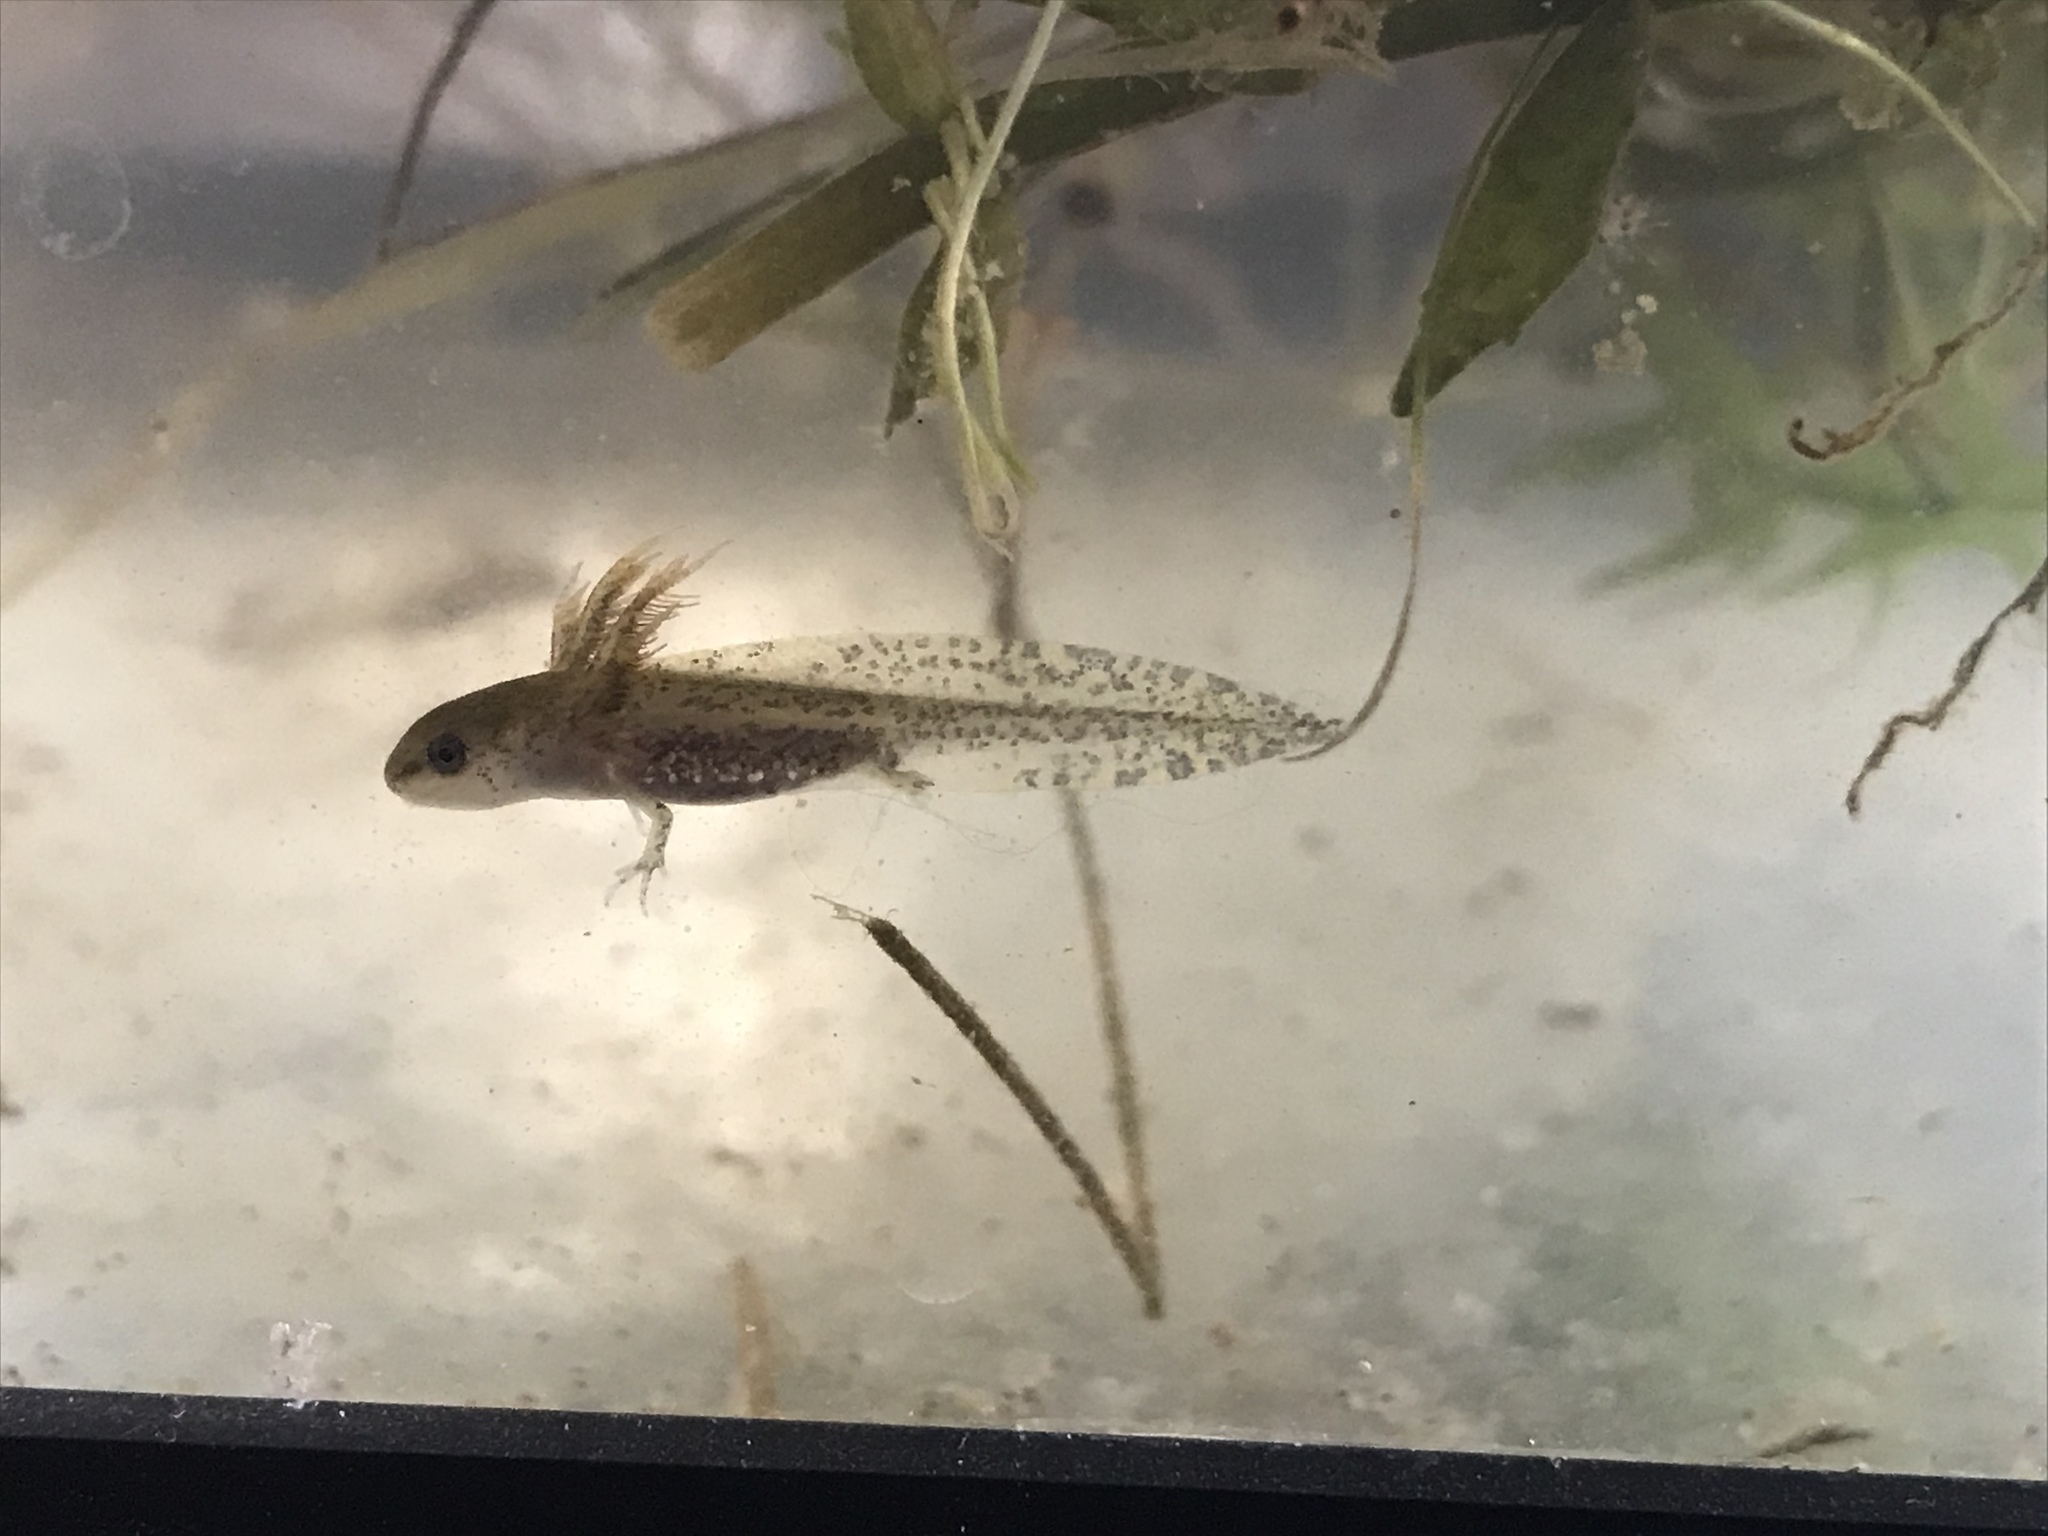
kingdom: Animalia
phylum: Chordata
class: Amphibia
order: Caudata
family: Ambystomatidae
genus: Ambystoma
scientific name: Ambystoma maculatum
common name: Spotted salamander
